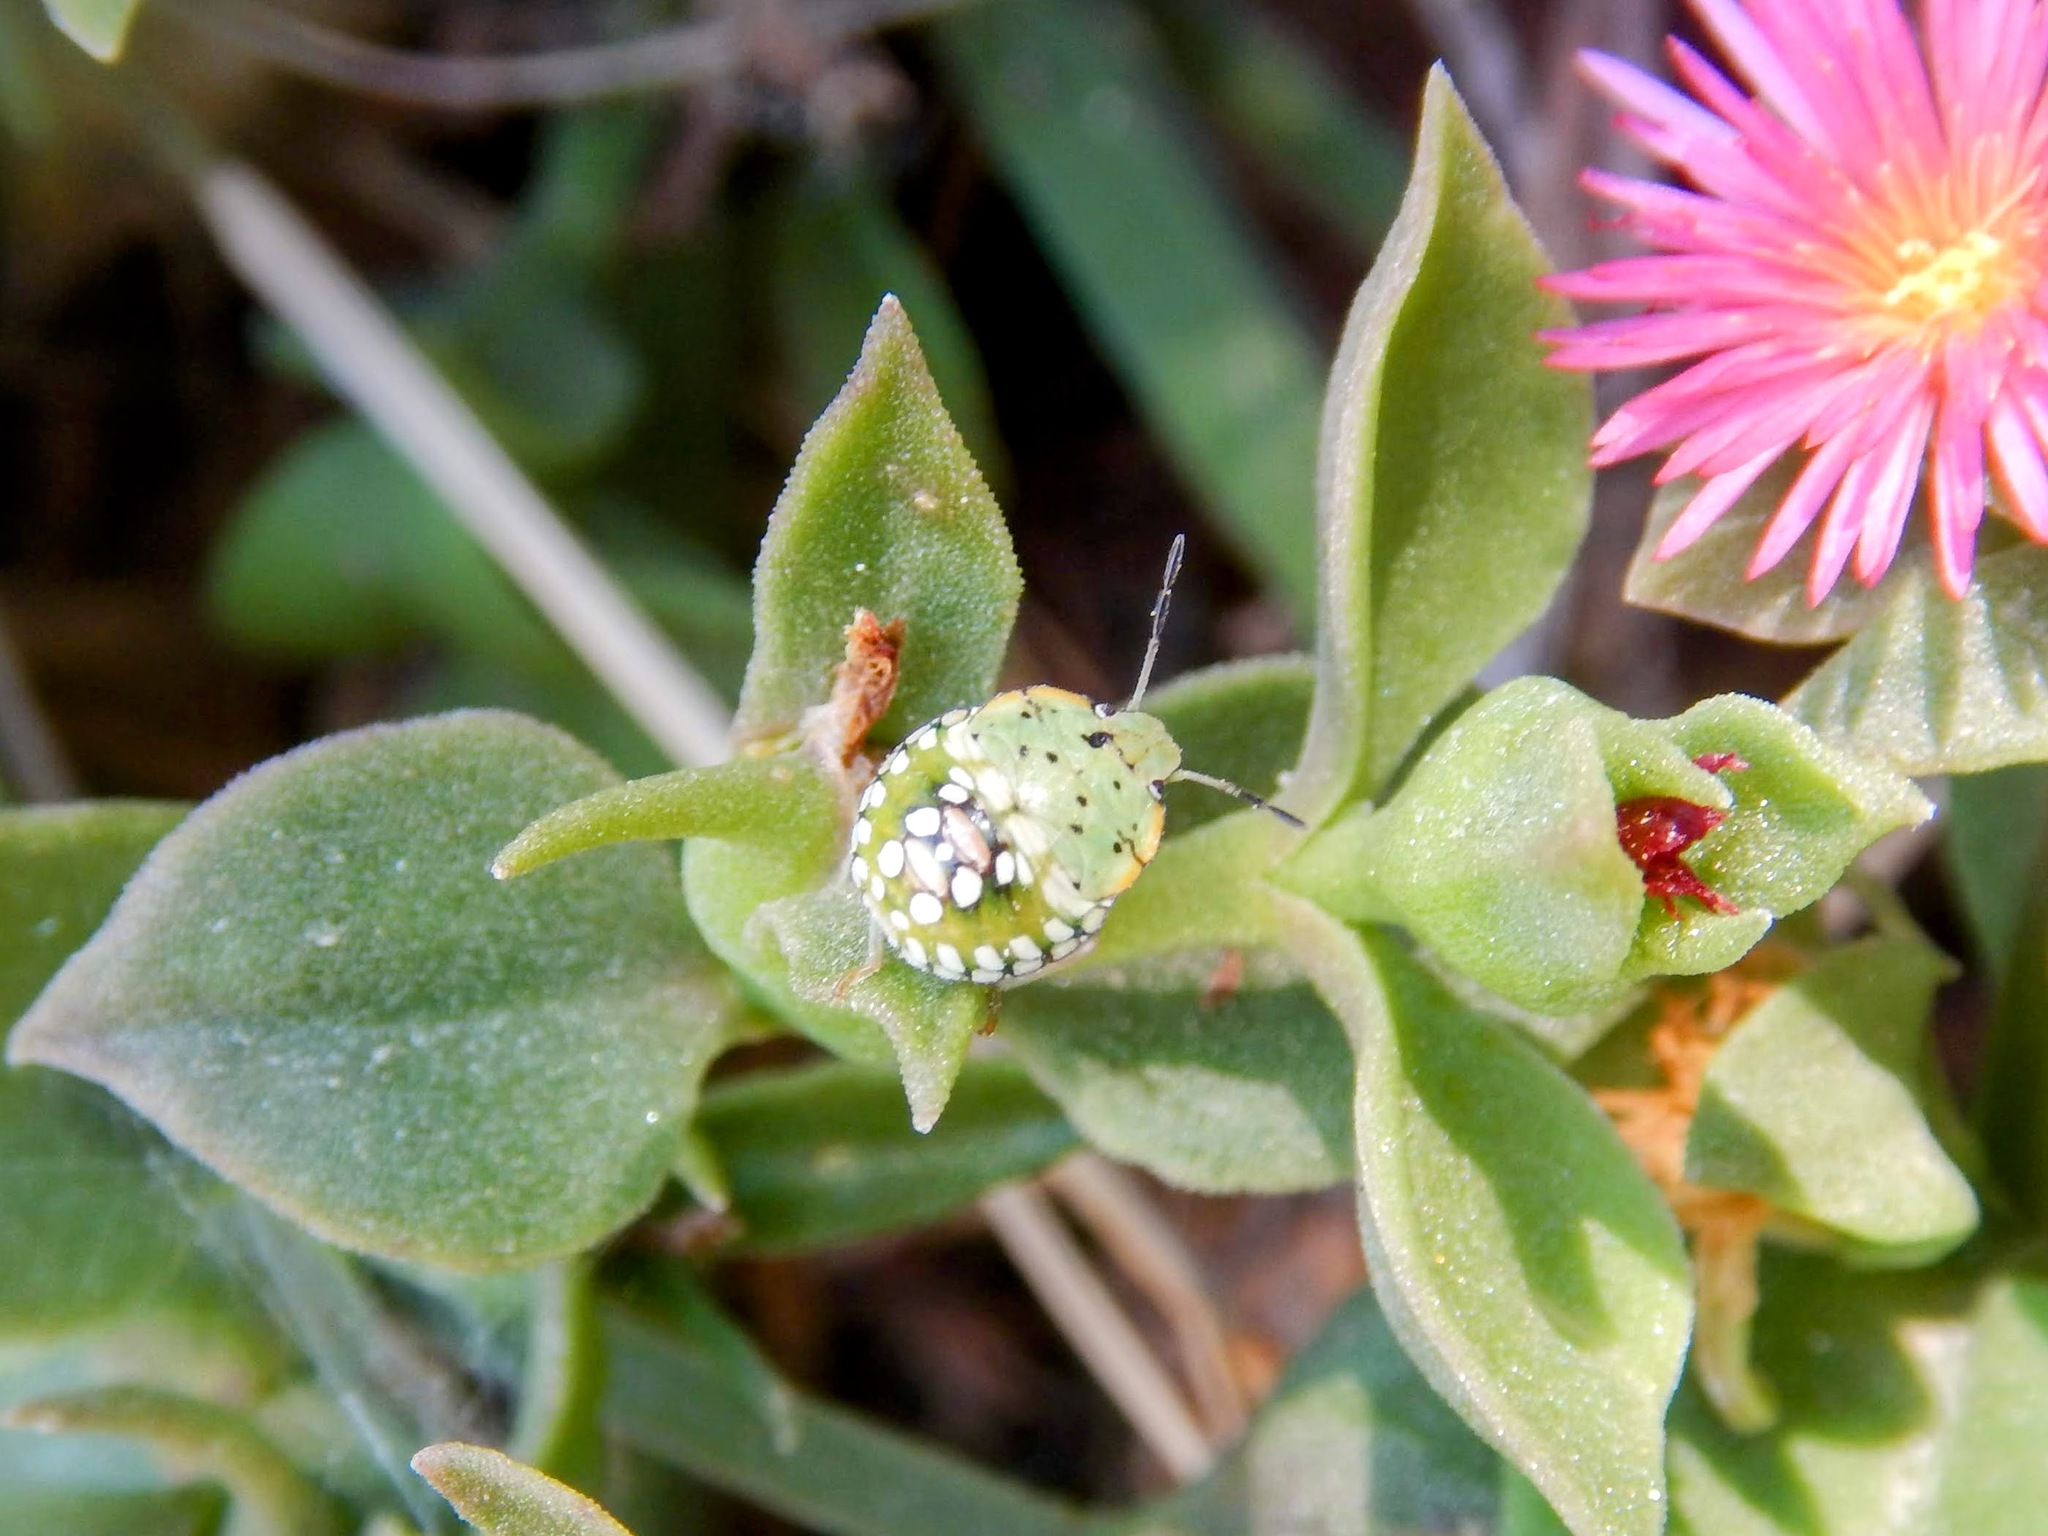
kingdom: Animalia
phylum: Arthropoda
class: Insecta
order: Hemiptera
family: Pentatomidae
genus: Nezara
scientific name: Nezara viridula
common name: Southern green stink bug
